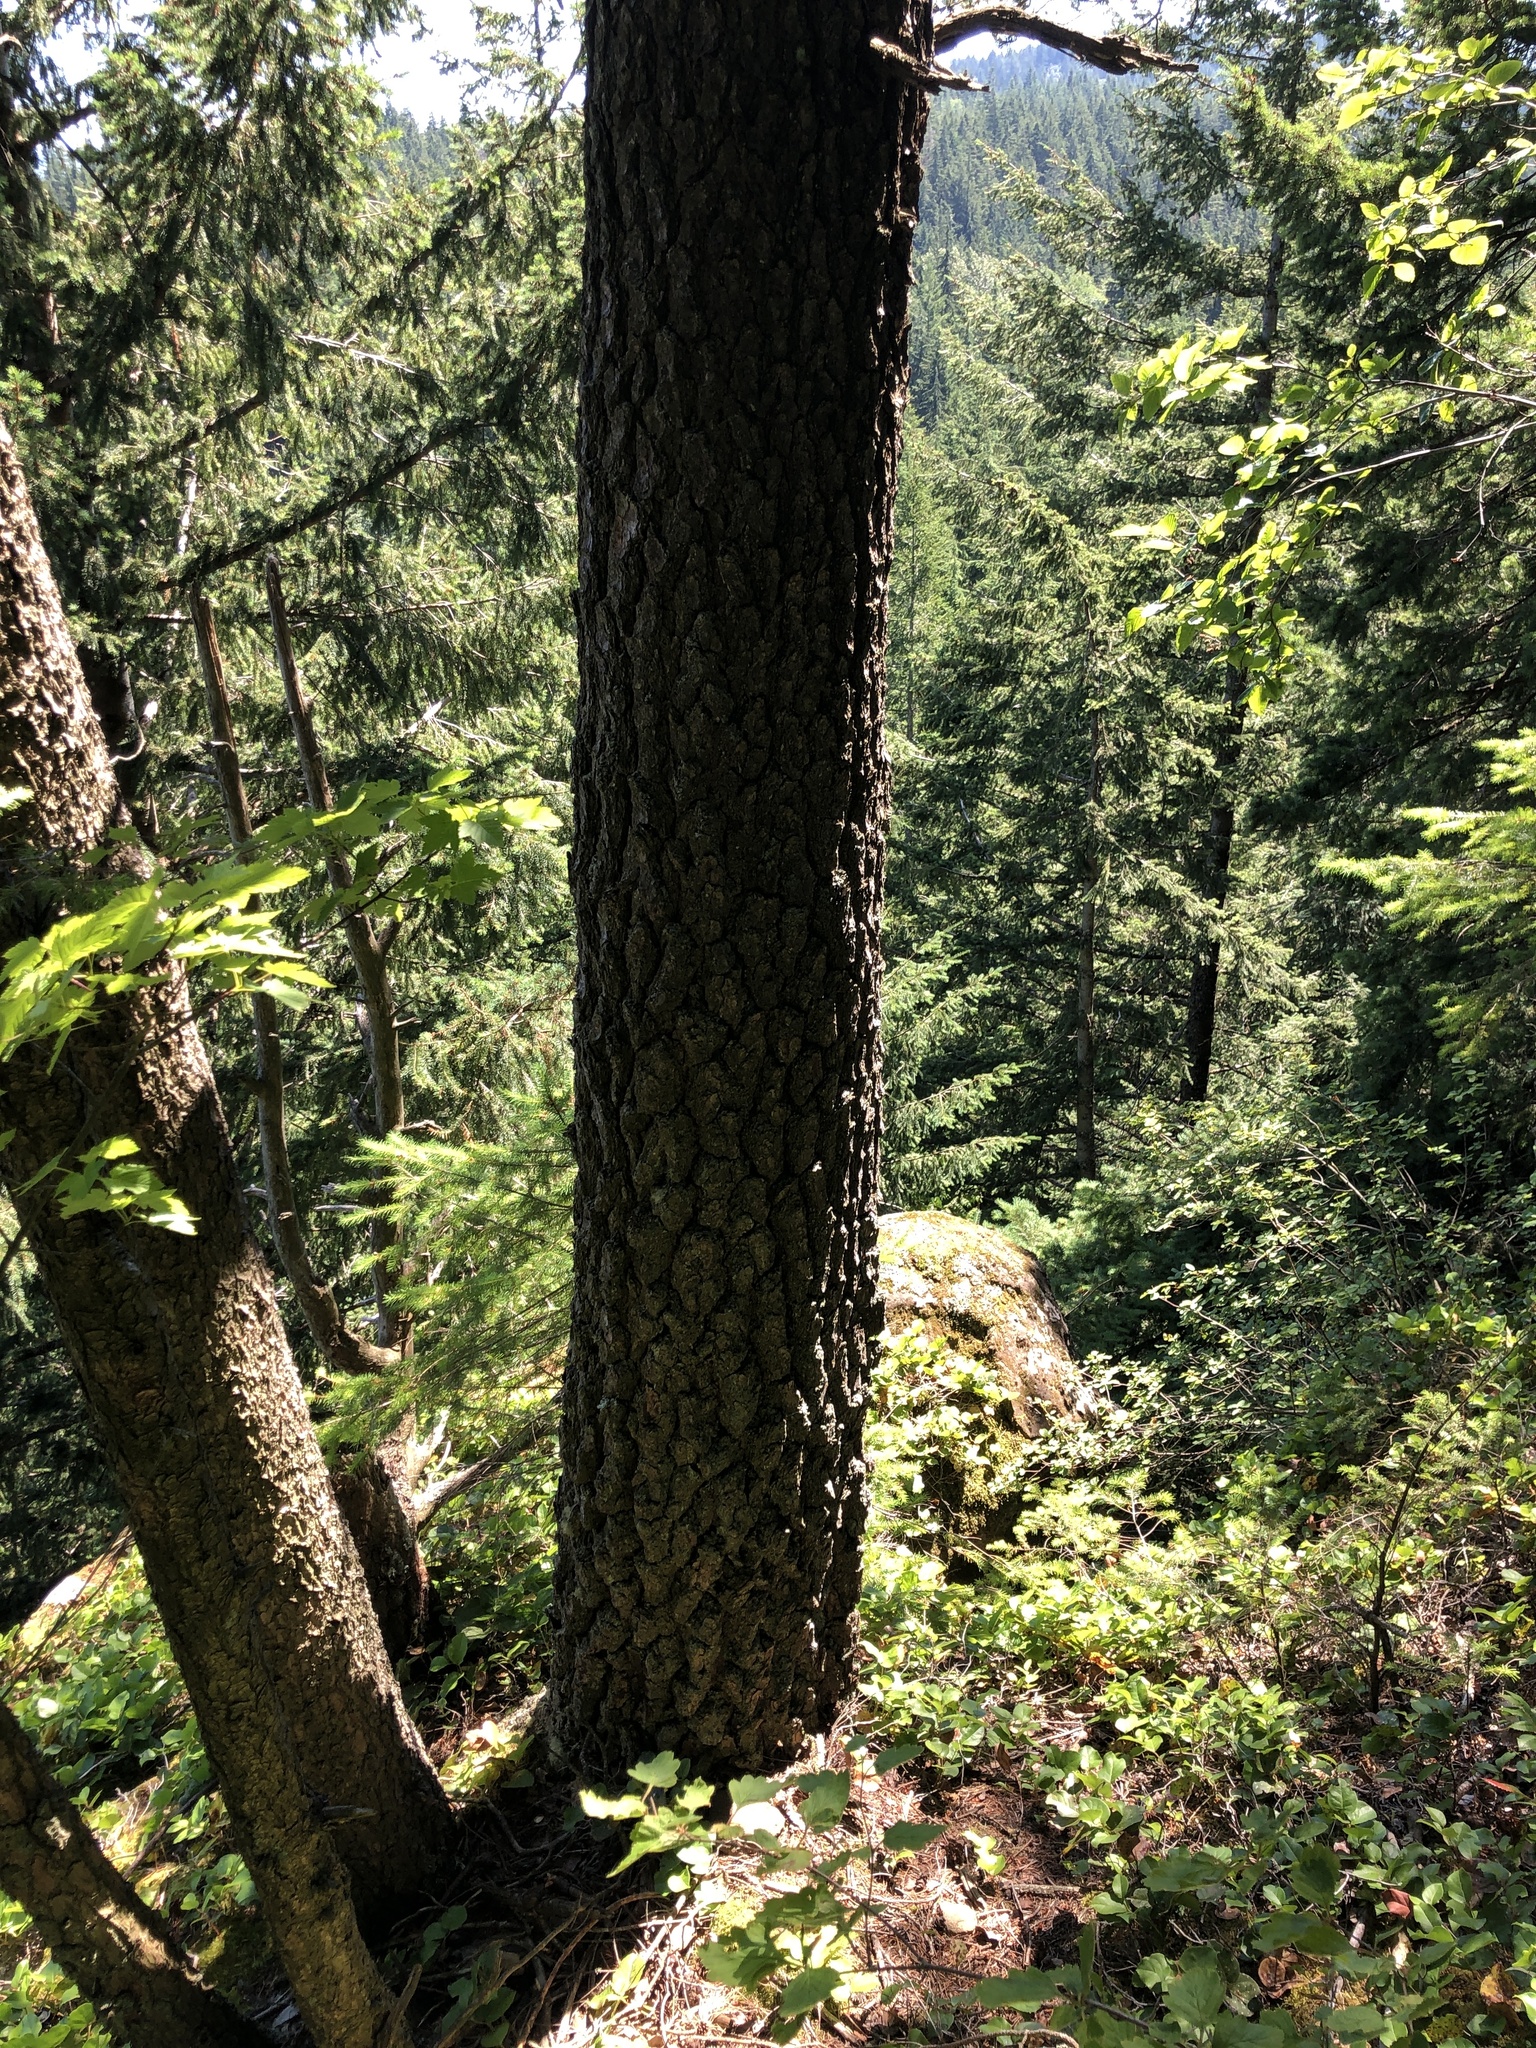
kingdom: Plantae
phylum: Tracheophyta
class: Pinopsida
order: Pinales
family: Pinaceae
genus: Pinus
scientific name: Pinus contorta
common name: Lodgepole pine
